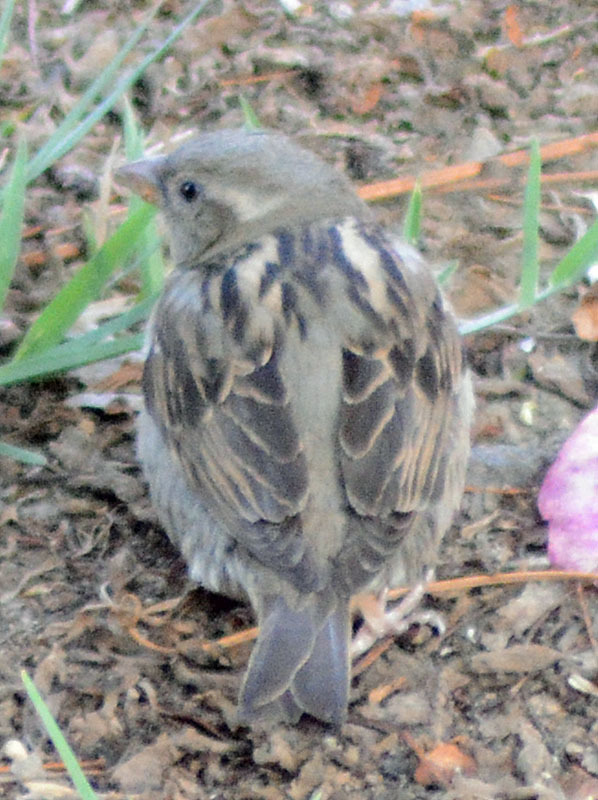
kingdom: Animalia
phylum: Chordata
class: Aves
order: Passeriformes
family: Passeridae
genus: Passer
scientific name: Passer domesticus
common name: House sparrow
